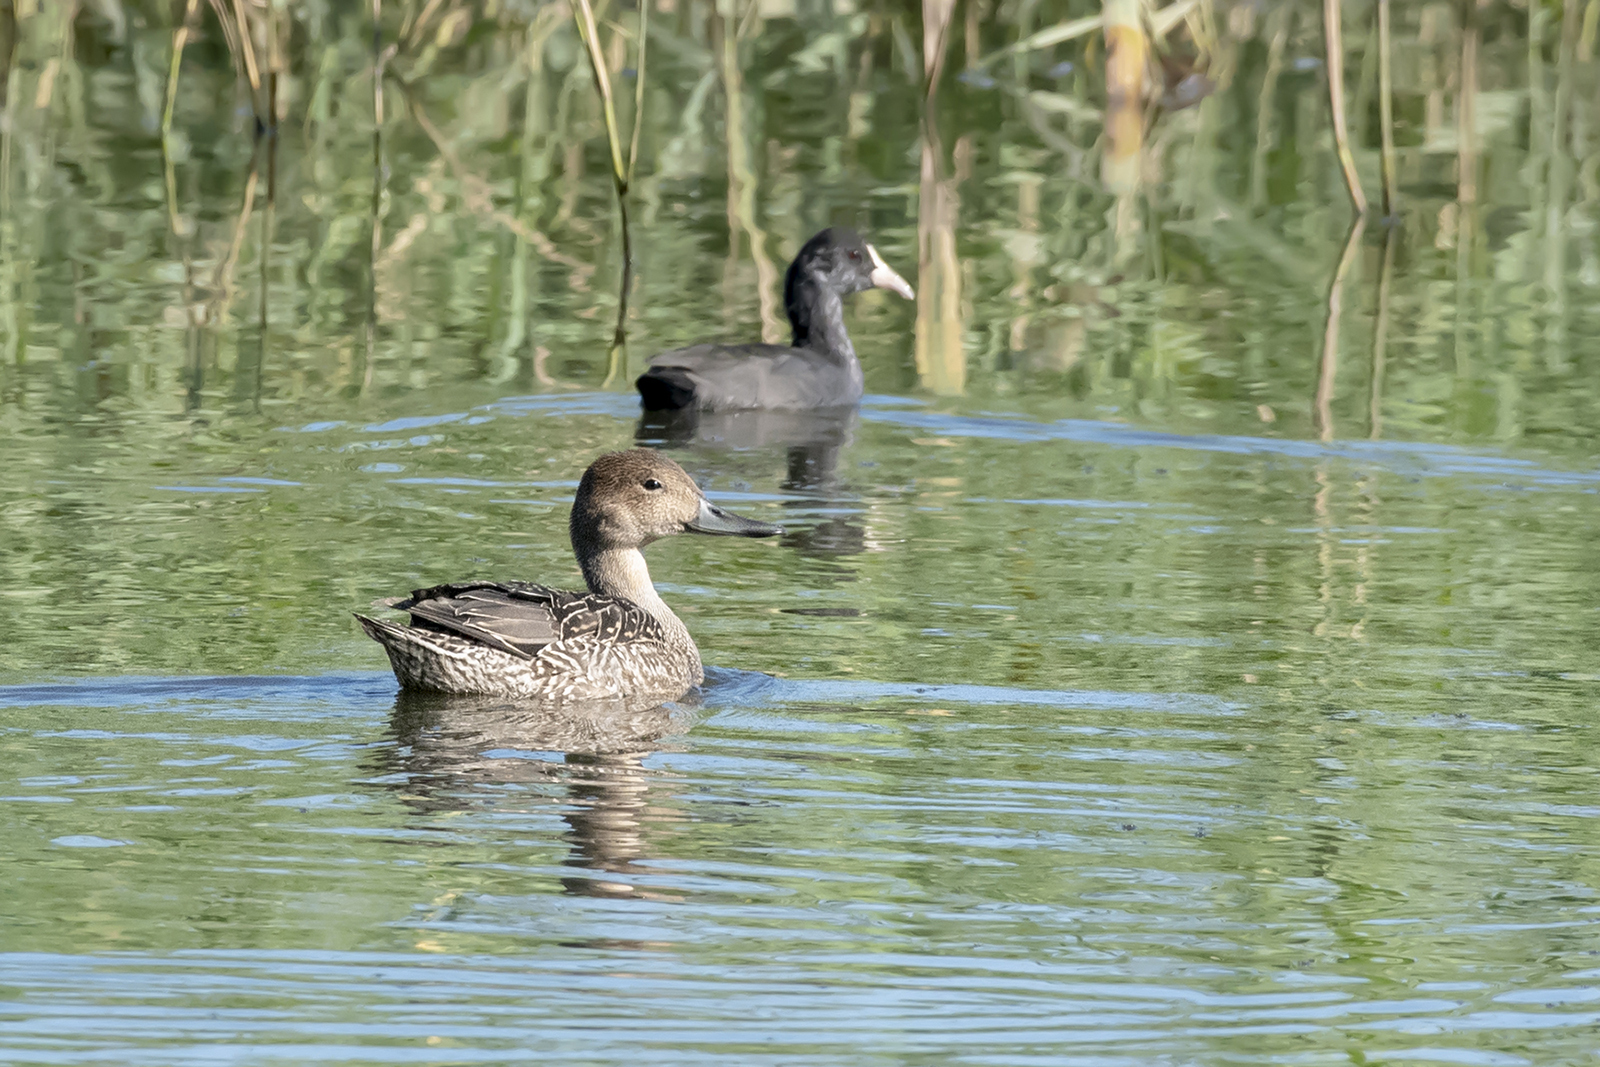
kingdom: Animalia
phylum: Chordata
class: Aves
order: Anseriformes
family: Anatidae
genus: Anas
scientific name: Anas acuta
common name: Northern pintail
